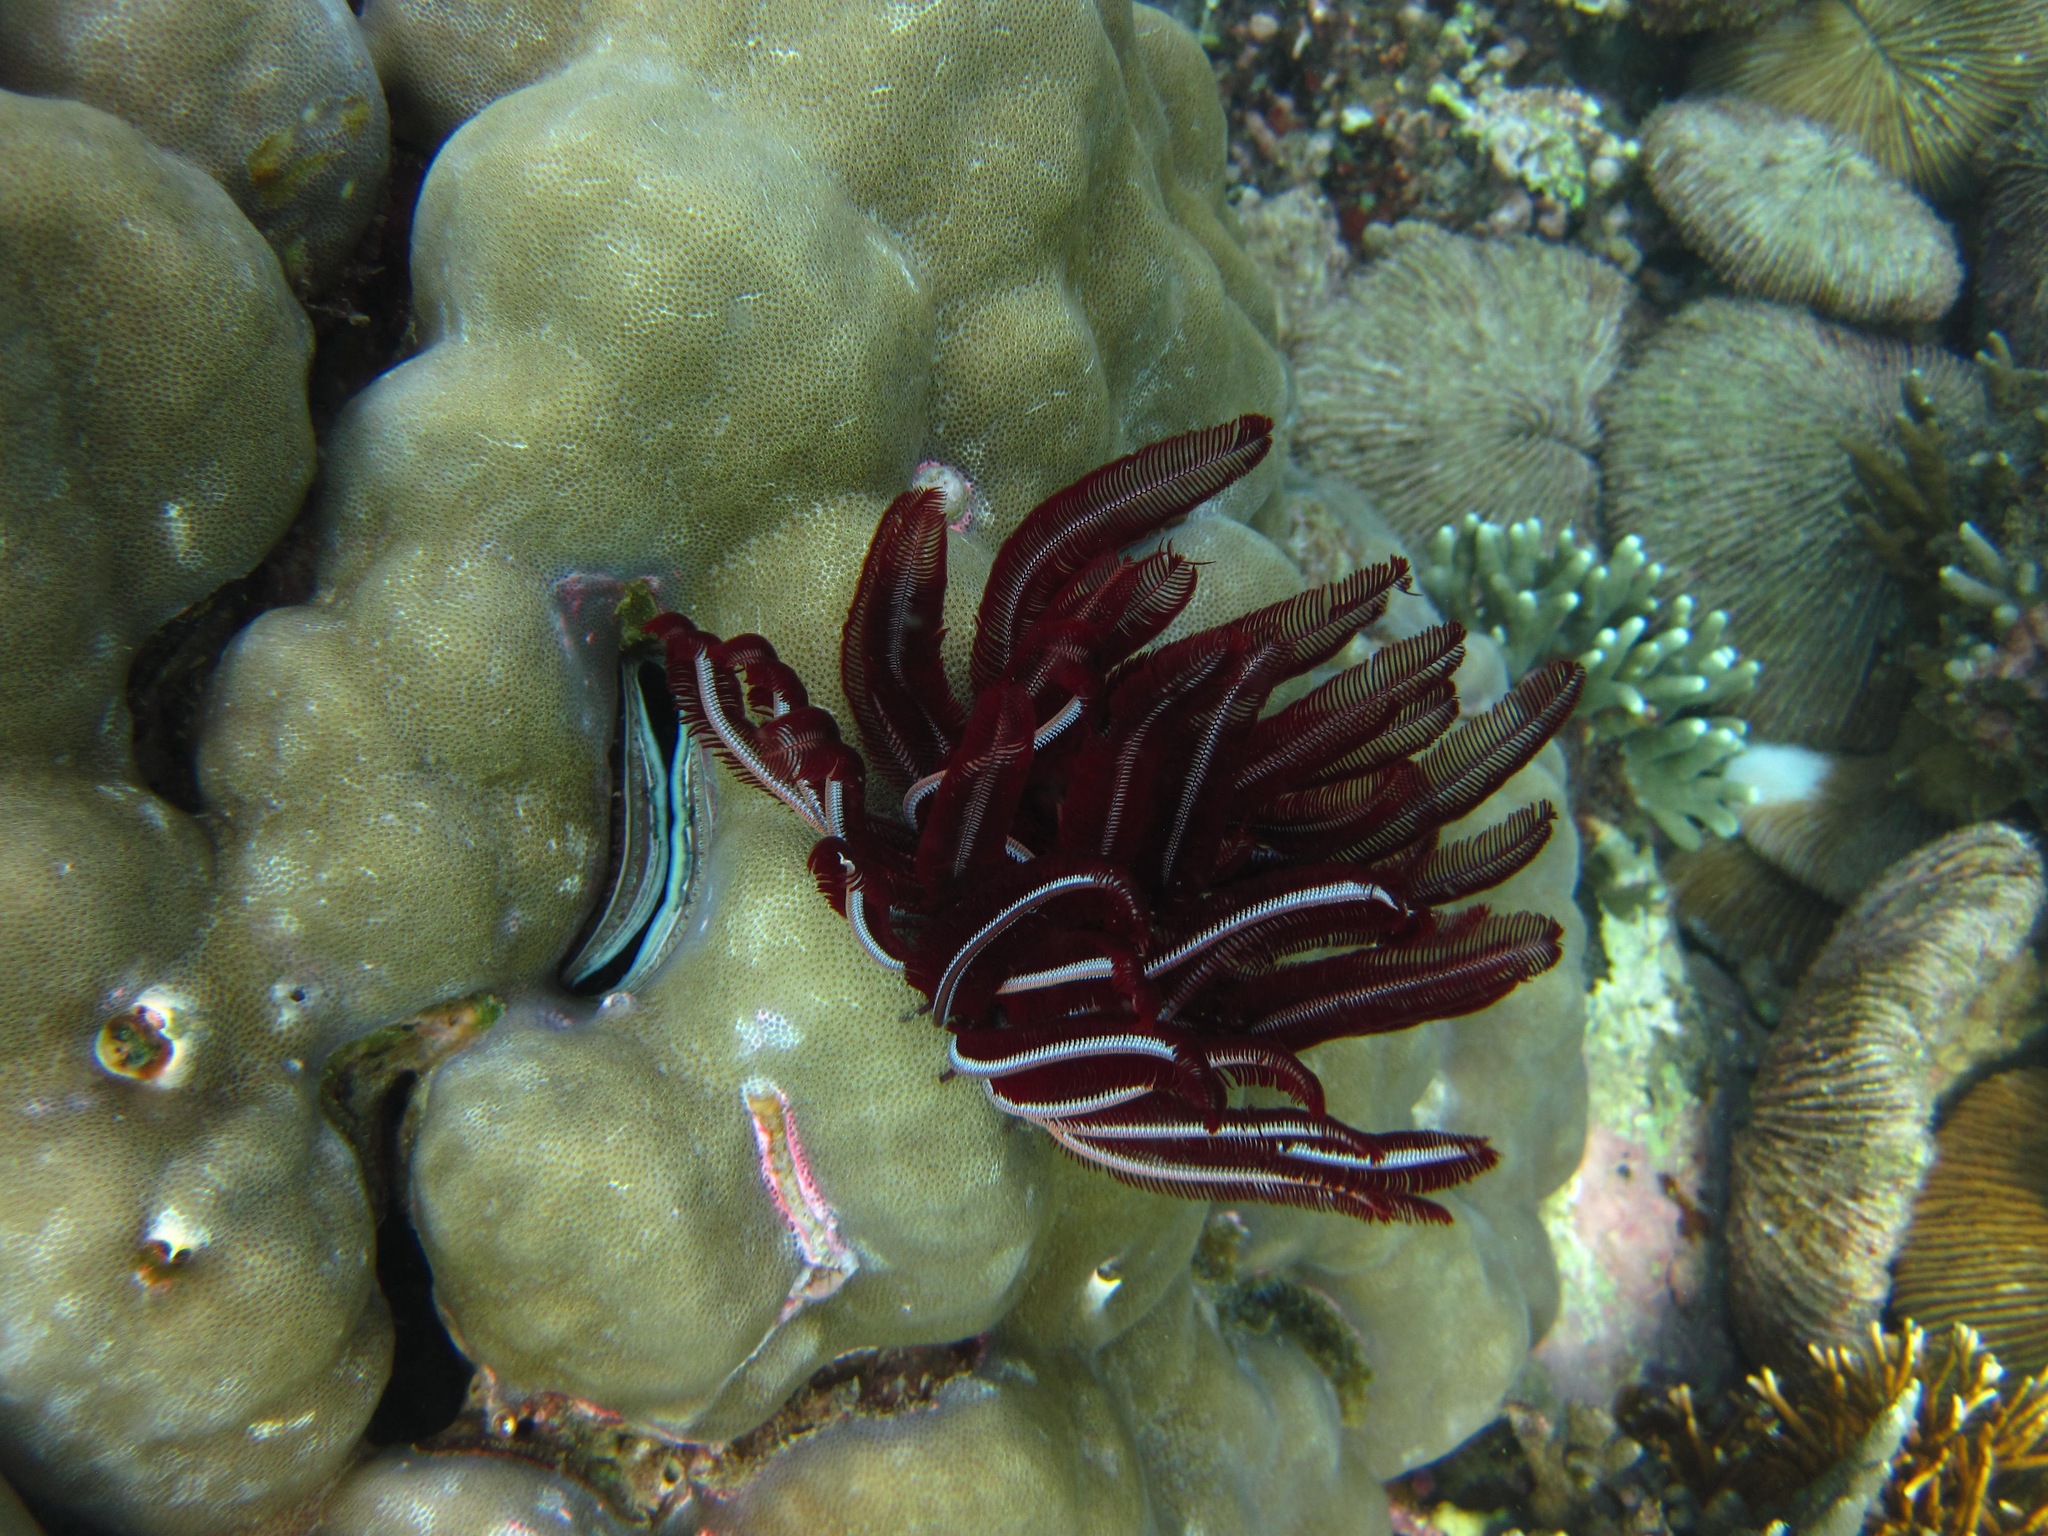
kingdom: Animalia
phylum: Echinodermata
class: Crinoidea
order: Comatulida
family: Himerometridae
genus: Himerometra
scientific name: Himerometra robustipinna
